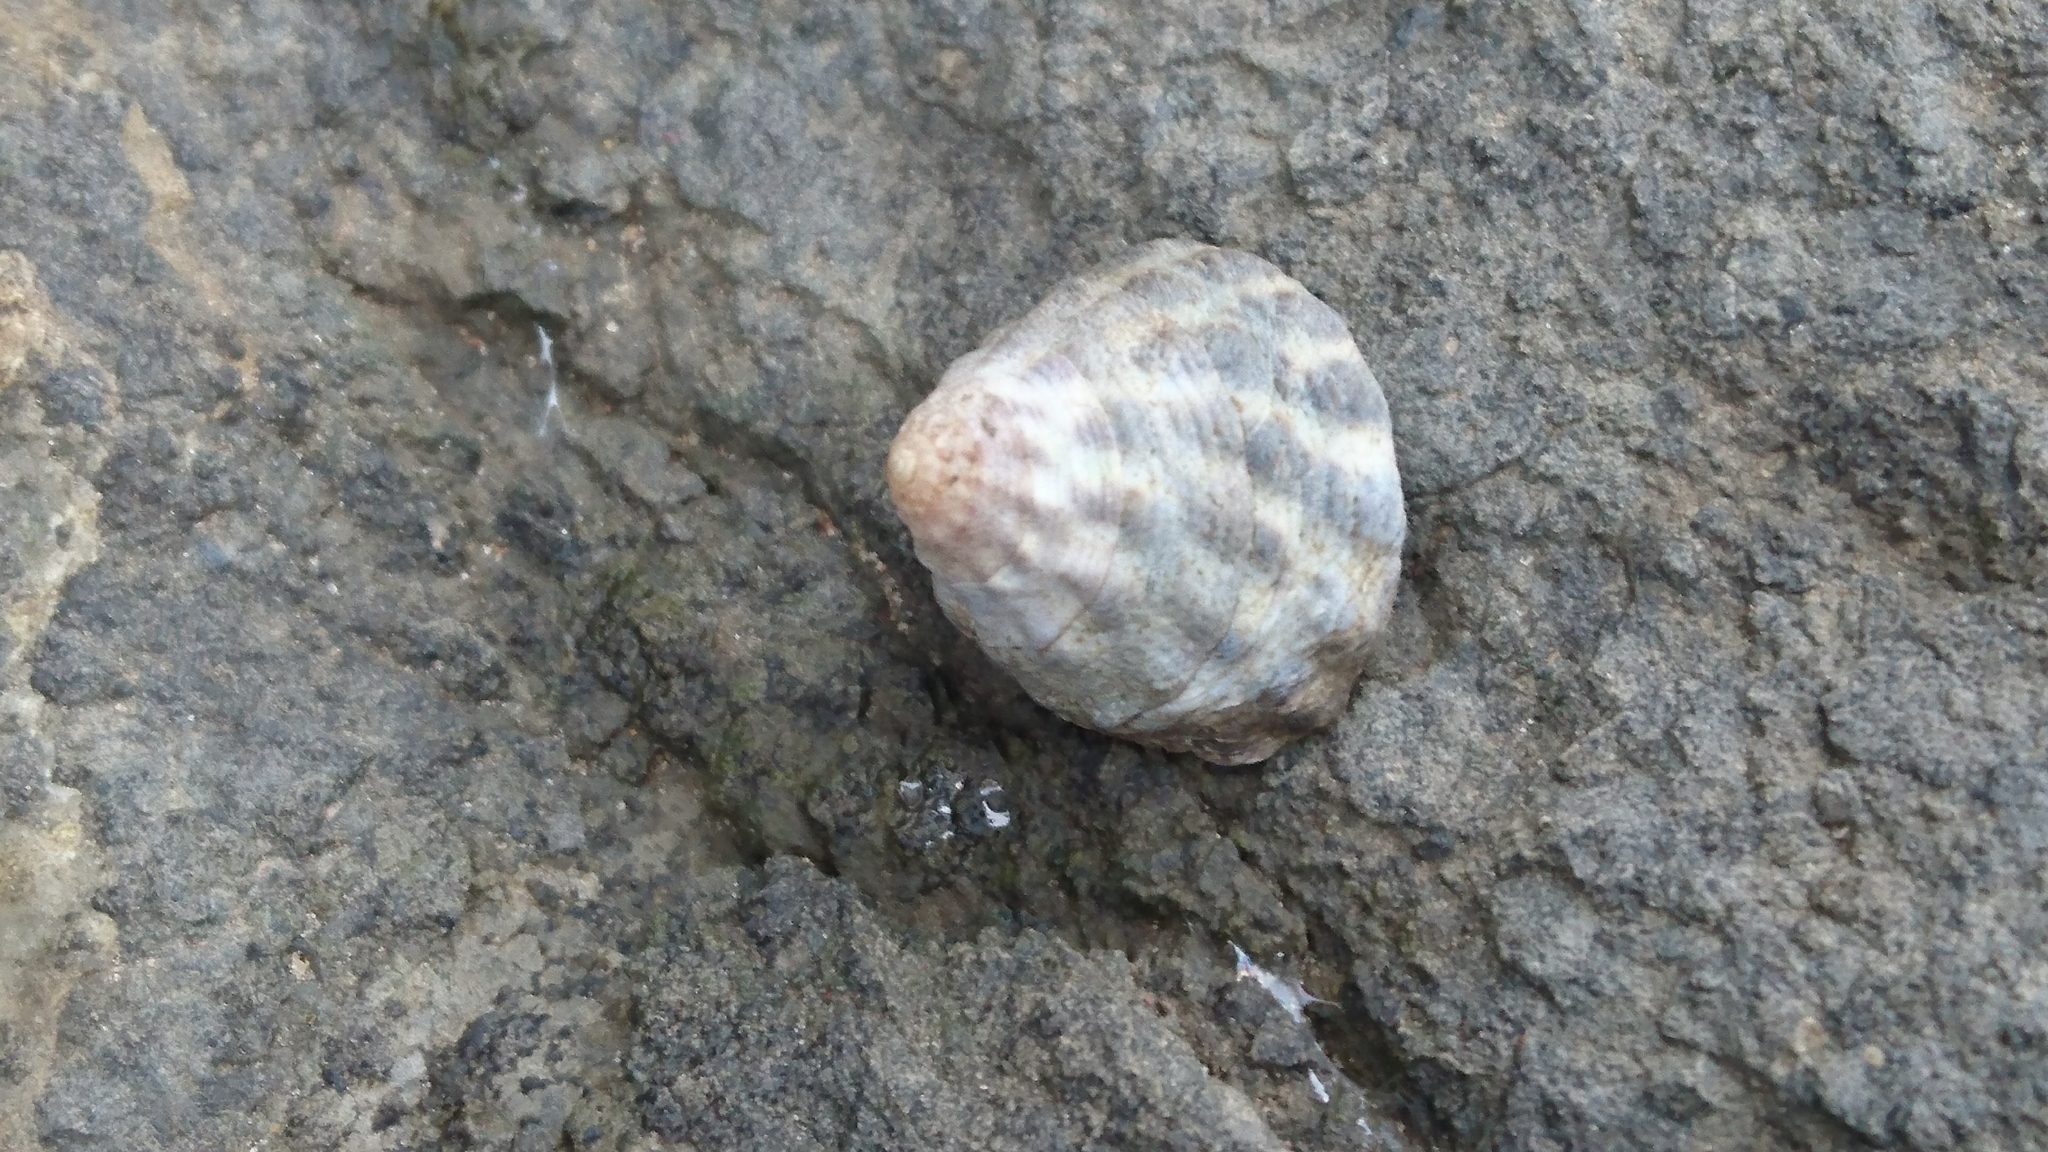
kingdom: Animalia
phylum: Mollusca
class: Gastropoda
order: Littorinimorpha
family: Littorinidae
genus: Bembicium
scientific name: Bembicium auratum
